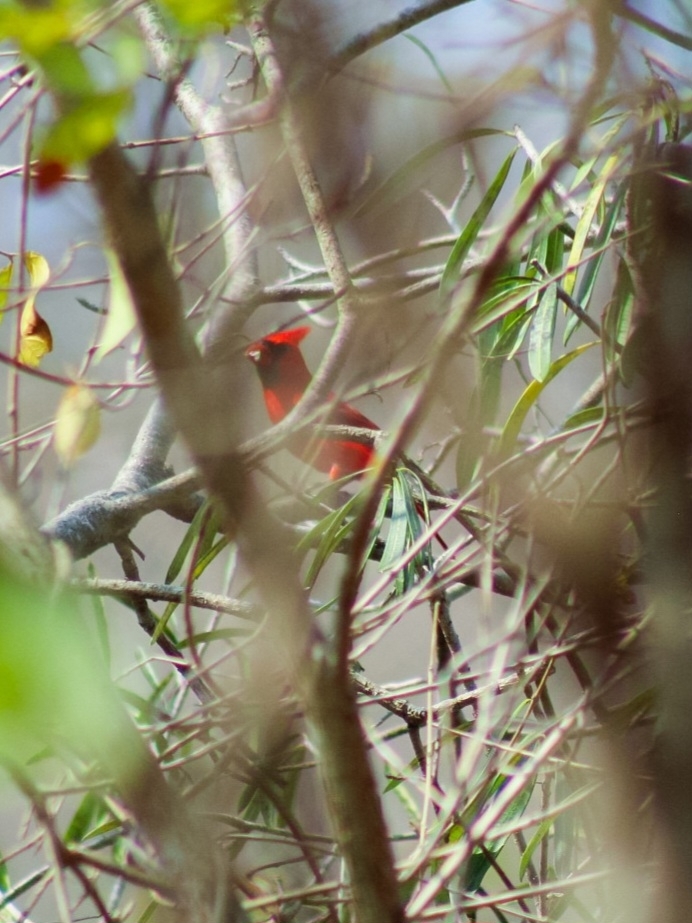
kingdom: Animalia
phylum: Chordata
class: Aves
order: Passeriformes
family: Cardinalidae
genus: Cardinalis
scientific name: Cardinalis cardinalis
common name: Northern cardinal
